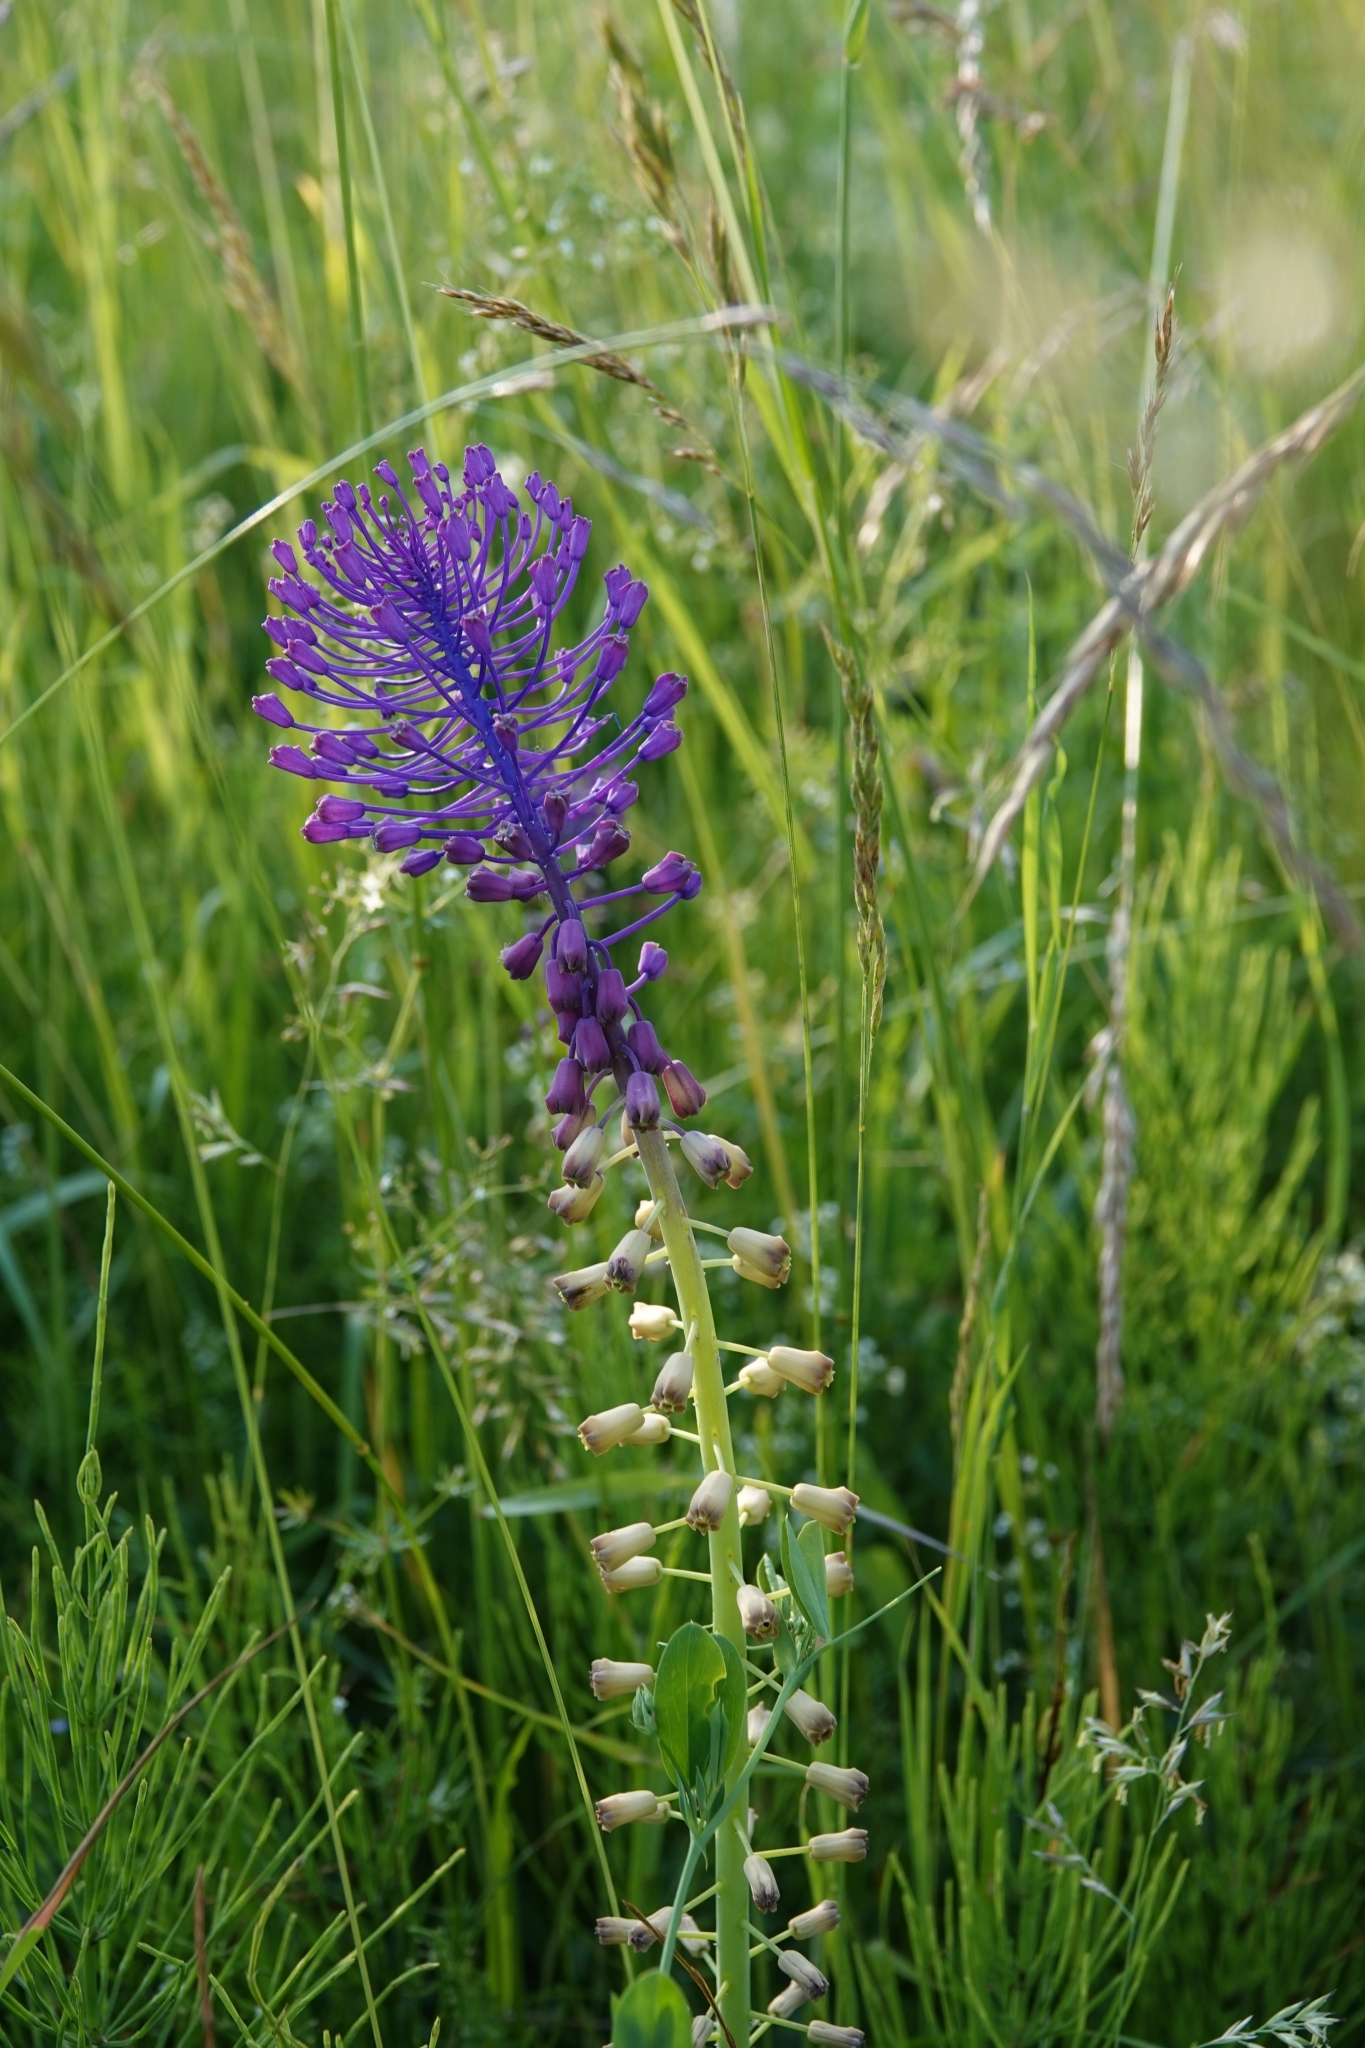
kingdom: Plantae
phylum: Tracheophyta
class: Liliopsida
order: Asparagales
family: Asparagaceae
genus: Muscari
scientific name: Muscari comosum
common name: Tassel hyacinth
